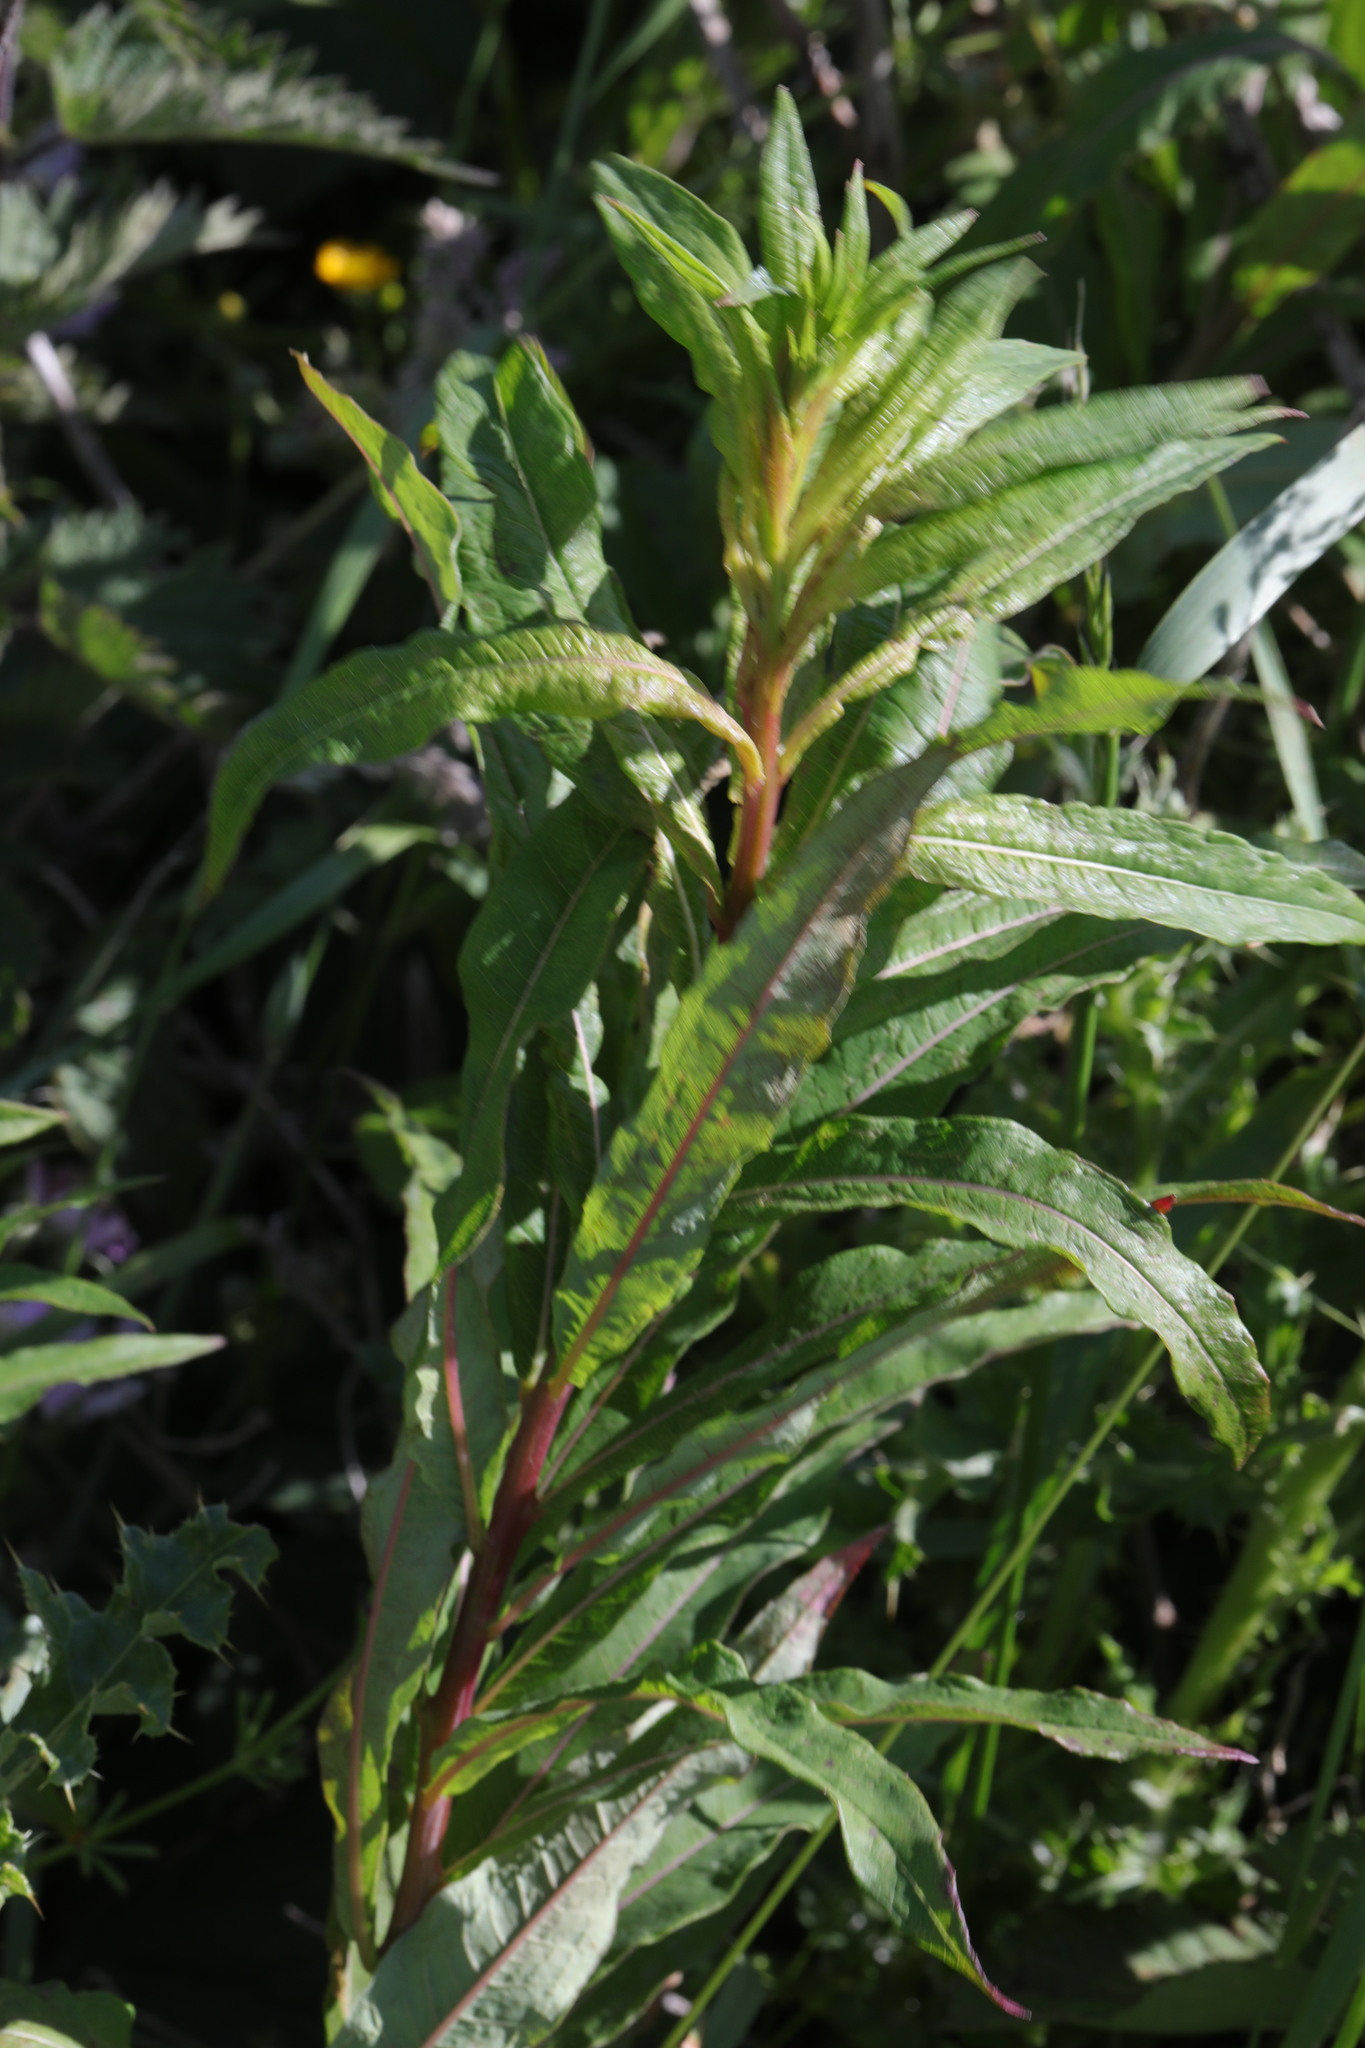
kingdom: Plantae
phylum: Tracheophyta
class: Magnoliopsida
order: Myrtales
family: Onagraceae
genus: Chamaenerion
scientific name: Chamaenerion angustifolium
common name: Fireweed
